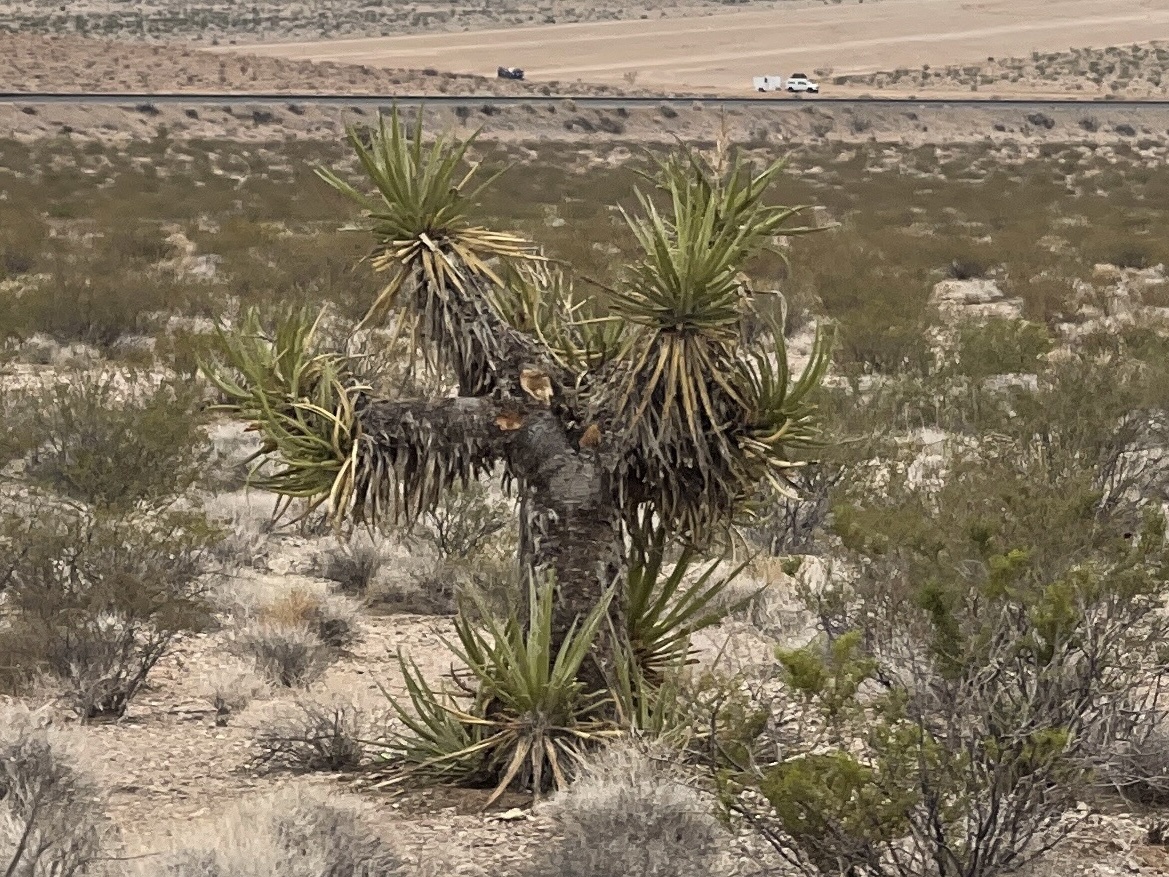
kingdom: Plantae
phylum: Tracheophyta
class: Liliopsida
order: Asparagales
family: Asparagaceae
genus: Yucca
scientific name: Yucca schidigera
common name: Mojave yucca
